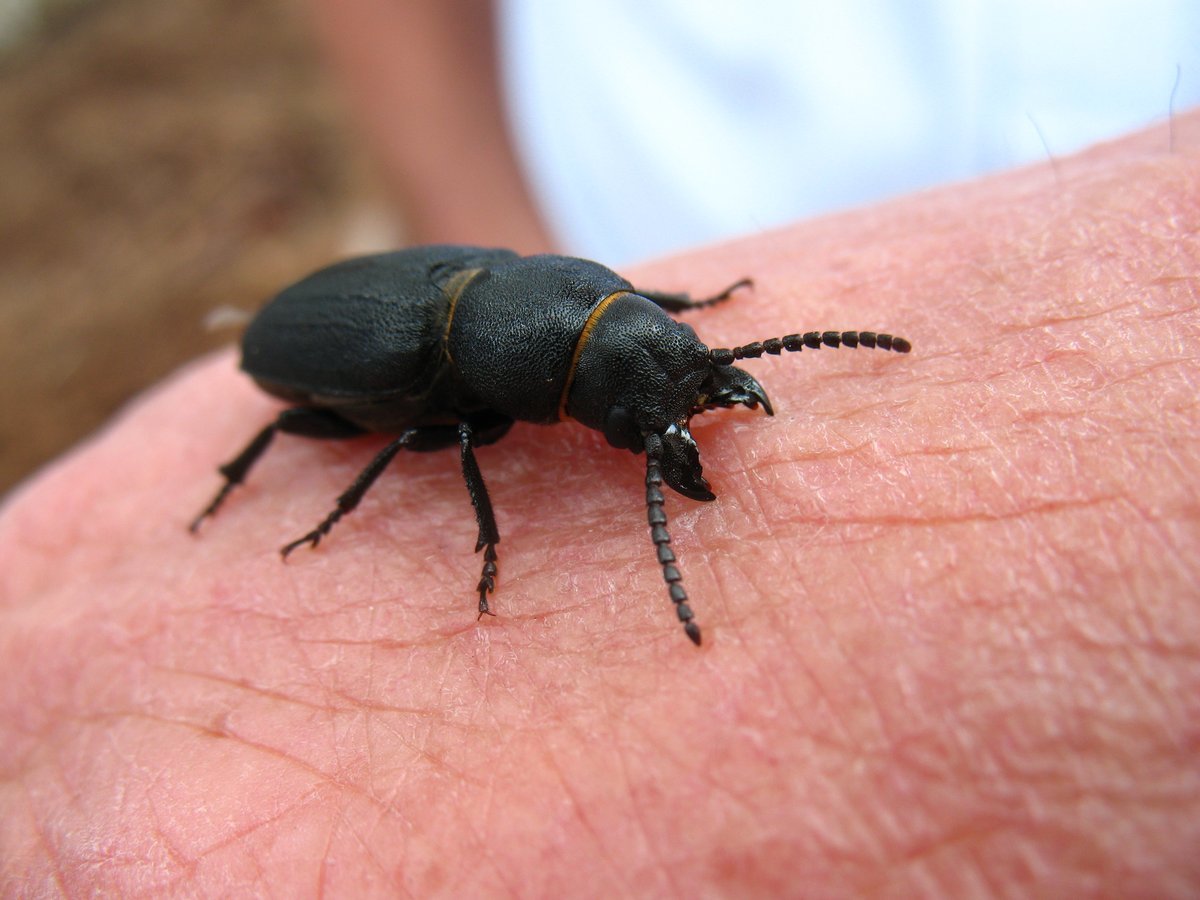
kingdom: Animalia
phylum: Arthropoda
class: Insecta
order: Coleoptera
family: Cerambycidae
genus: Spondylis
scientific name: Spondylis buprestoides
